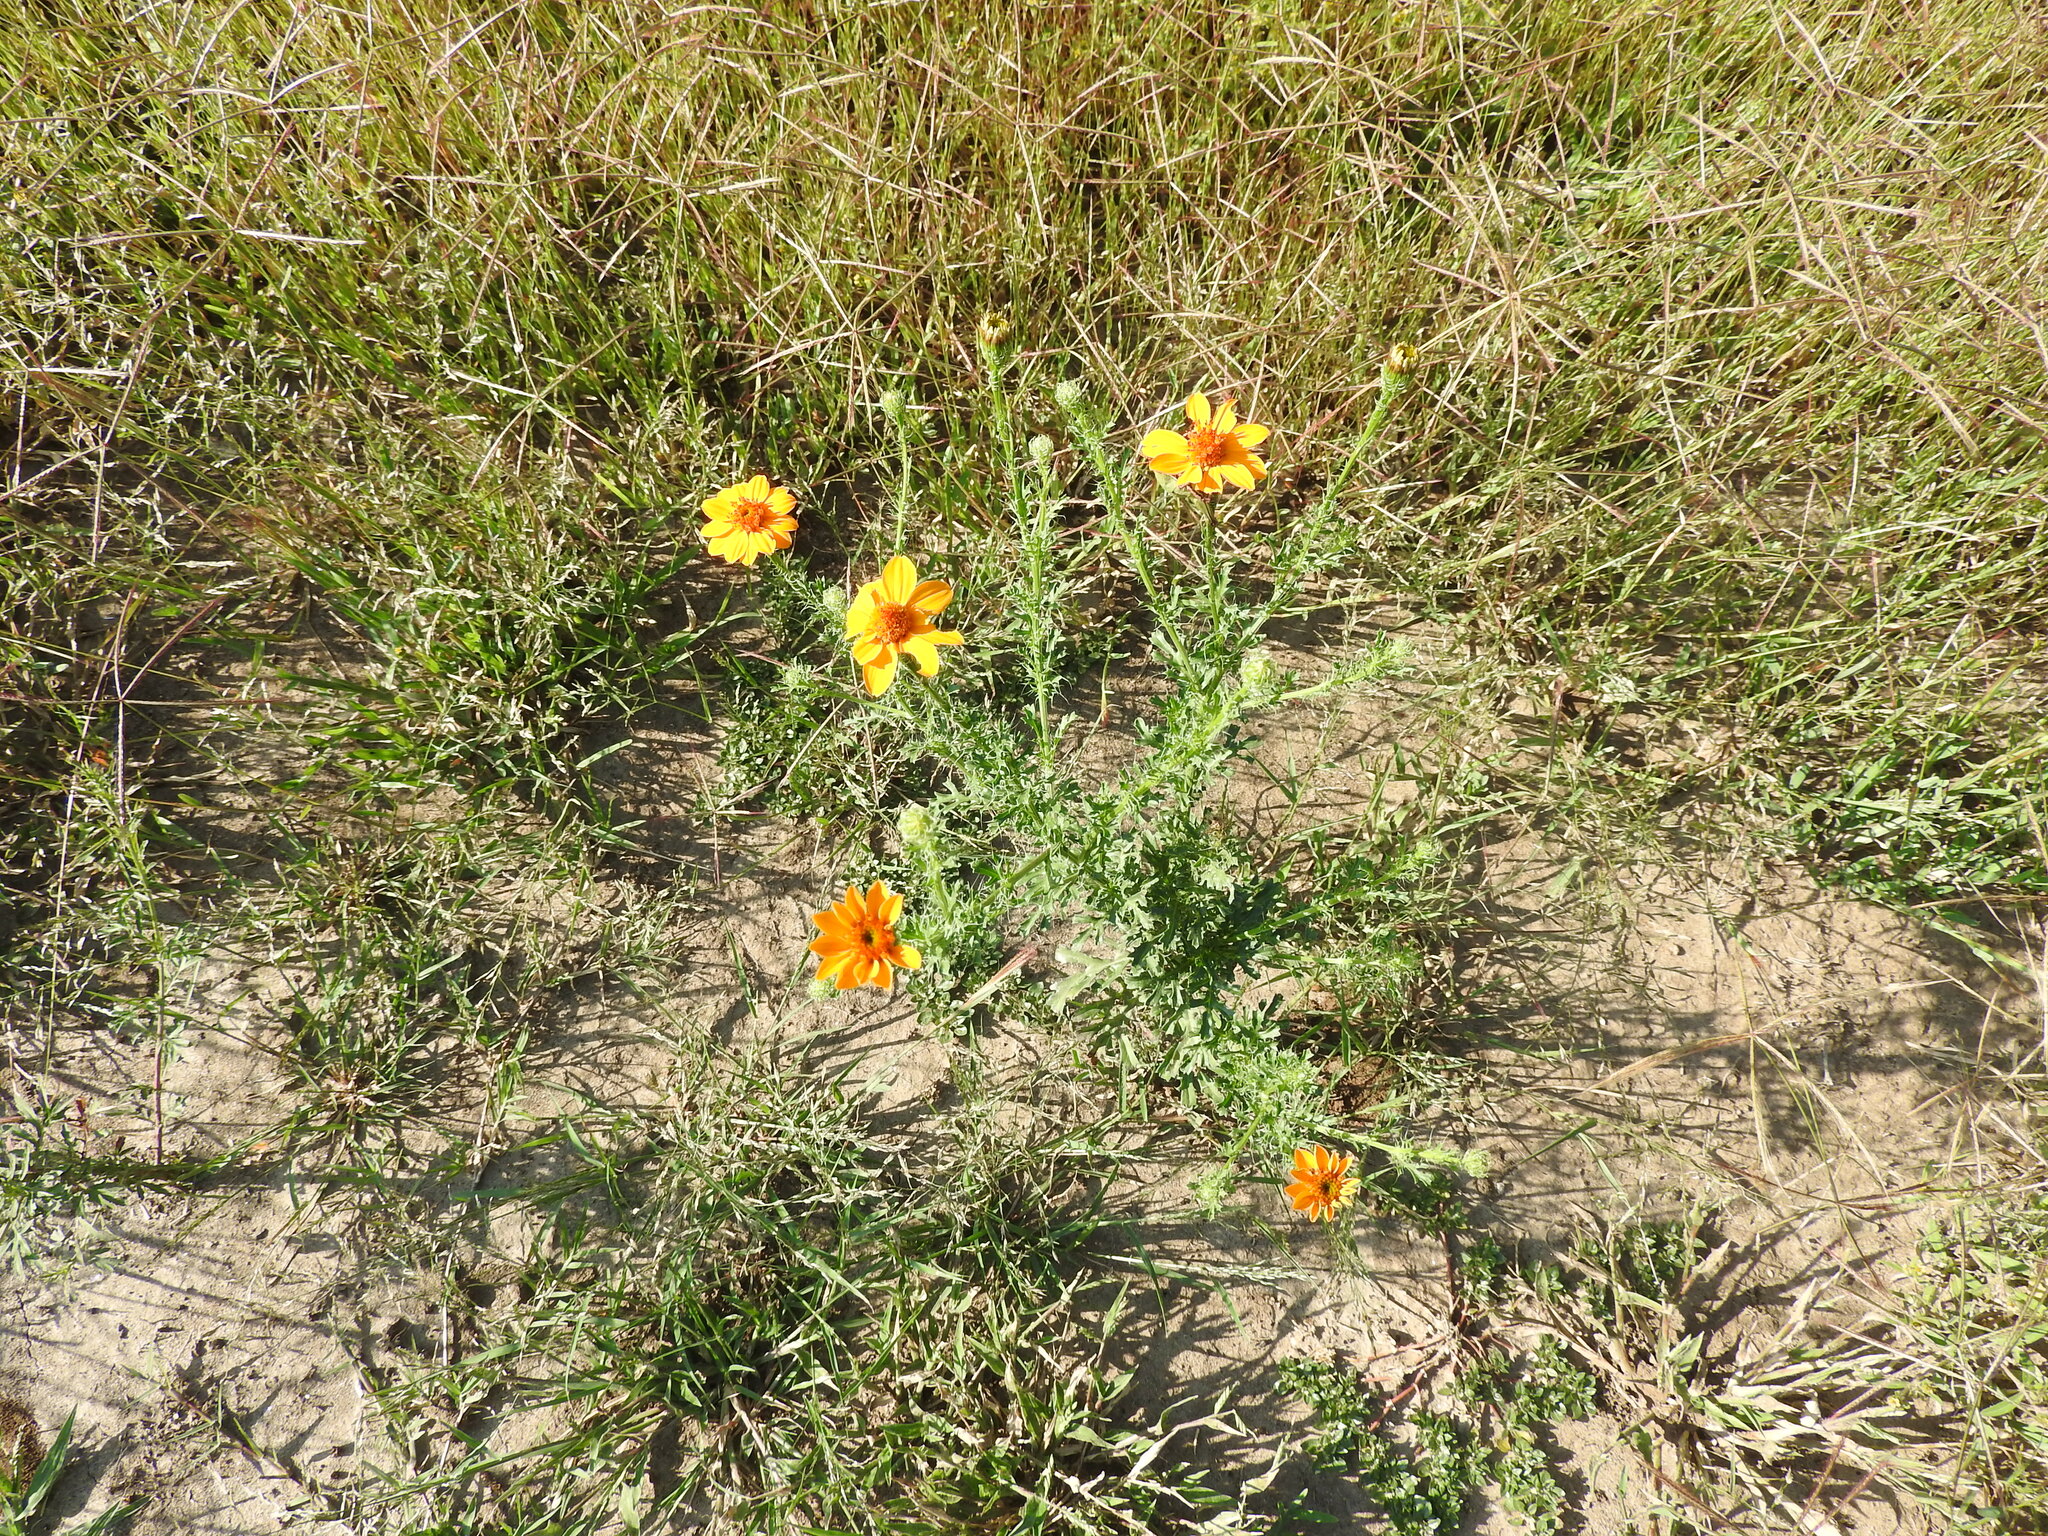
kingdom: Plantae
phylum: Tracheophyta
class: Magnoliopsida
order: Asterales
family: Asteraceae
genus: Adenophyllum
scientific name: Adenophyllum cancellatum
